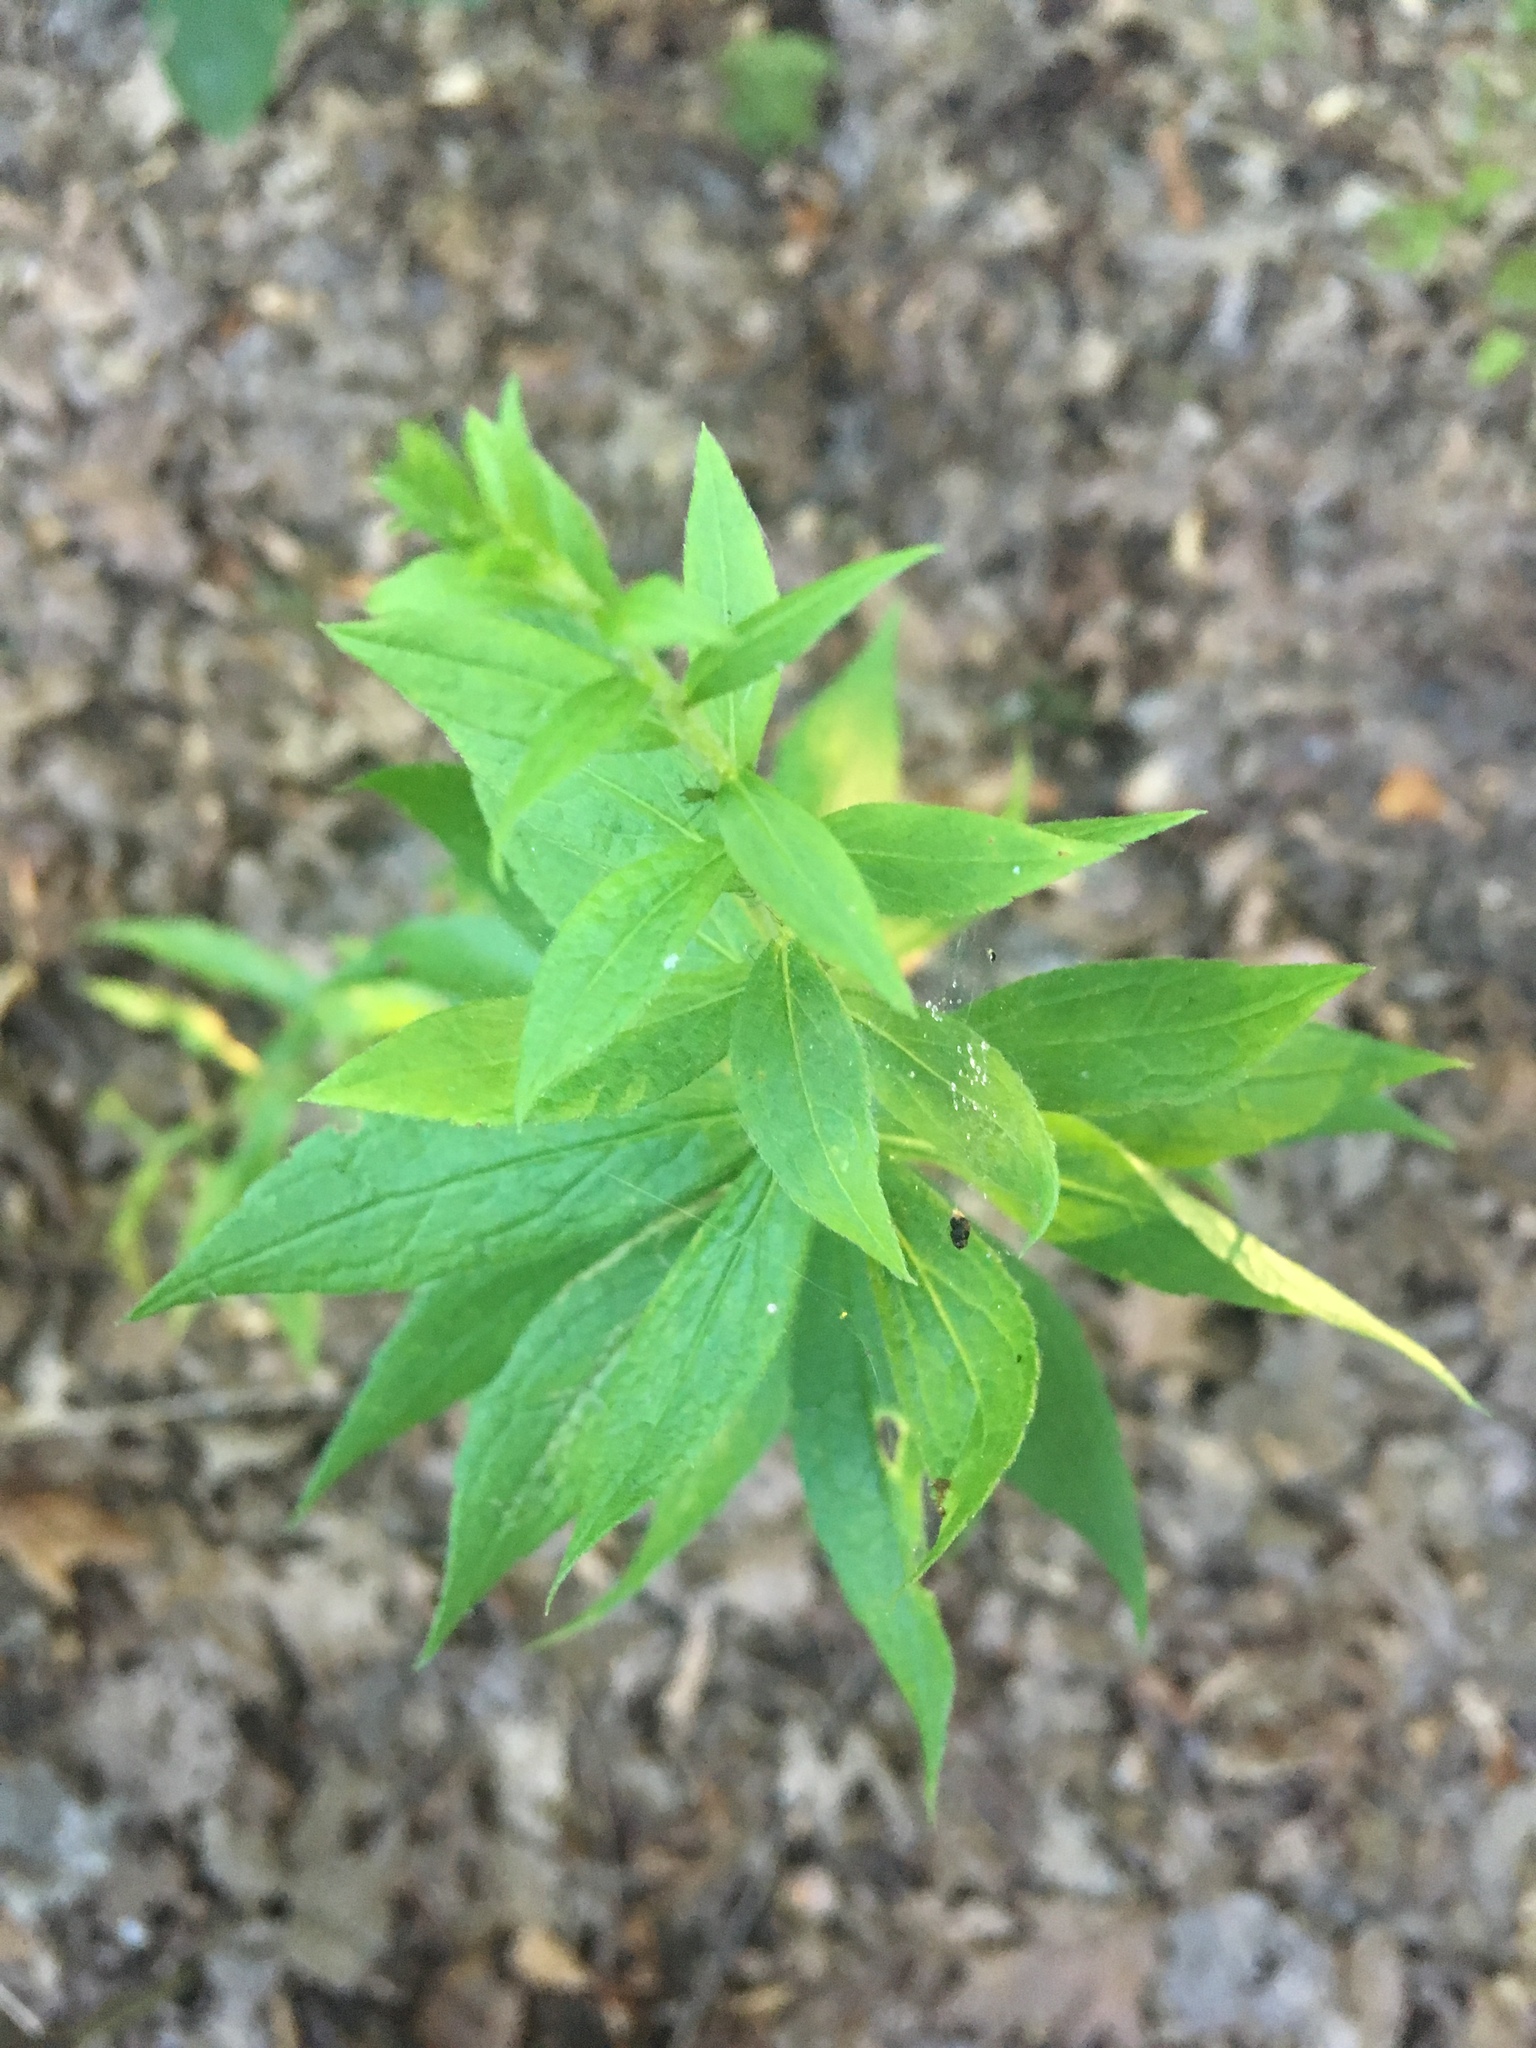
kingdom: Plantae
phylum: Tracheophyta
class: Magnoliopsida
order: Asterales
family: Asteraceae
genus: Solidago
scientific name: Solidago rugosa
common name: Rough-stemmed goldenrod
